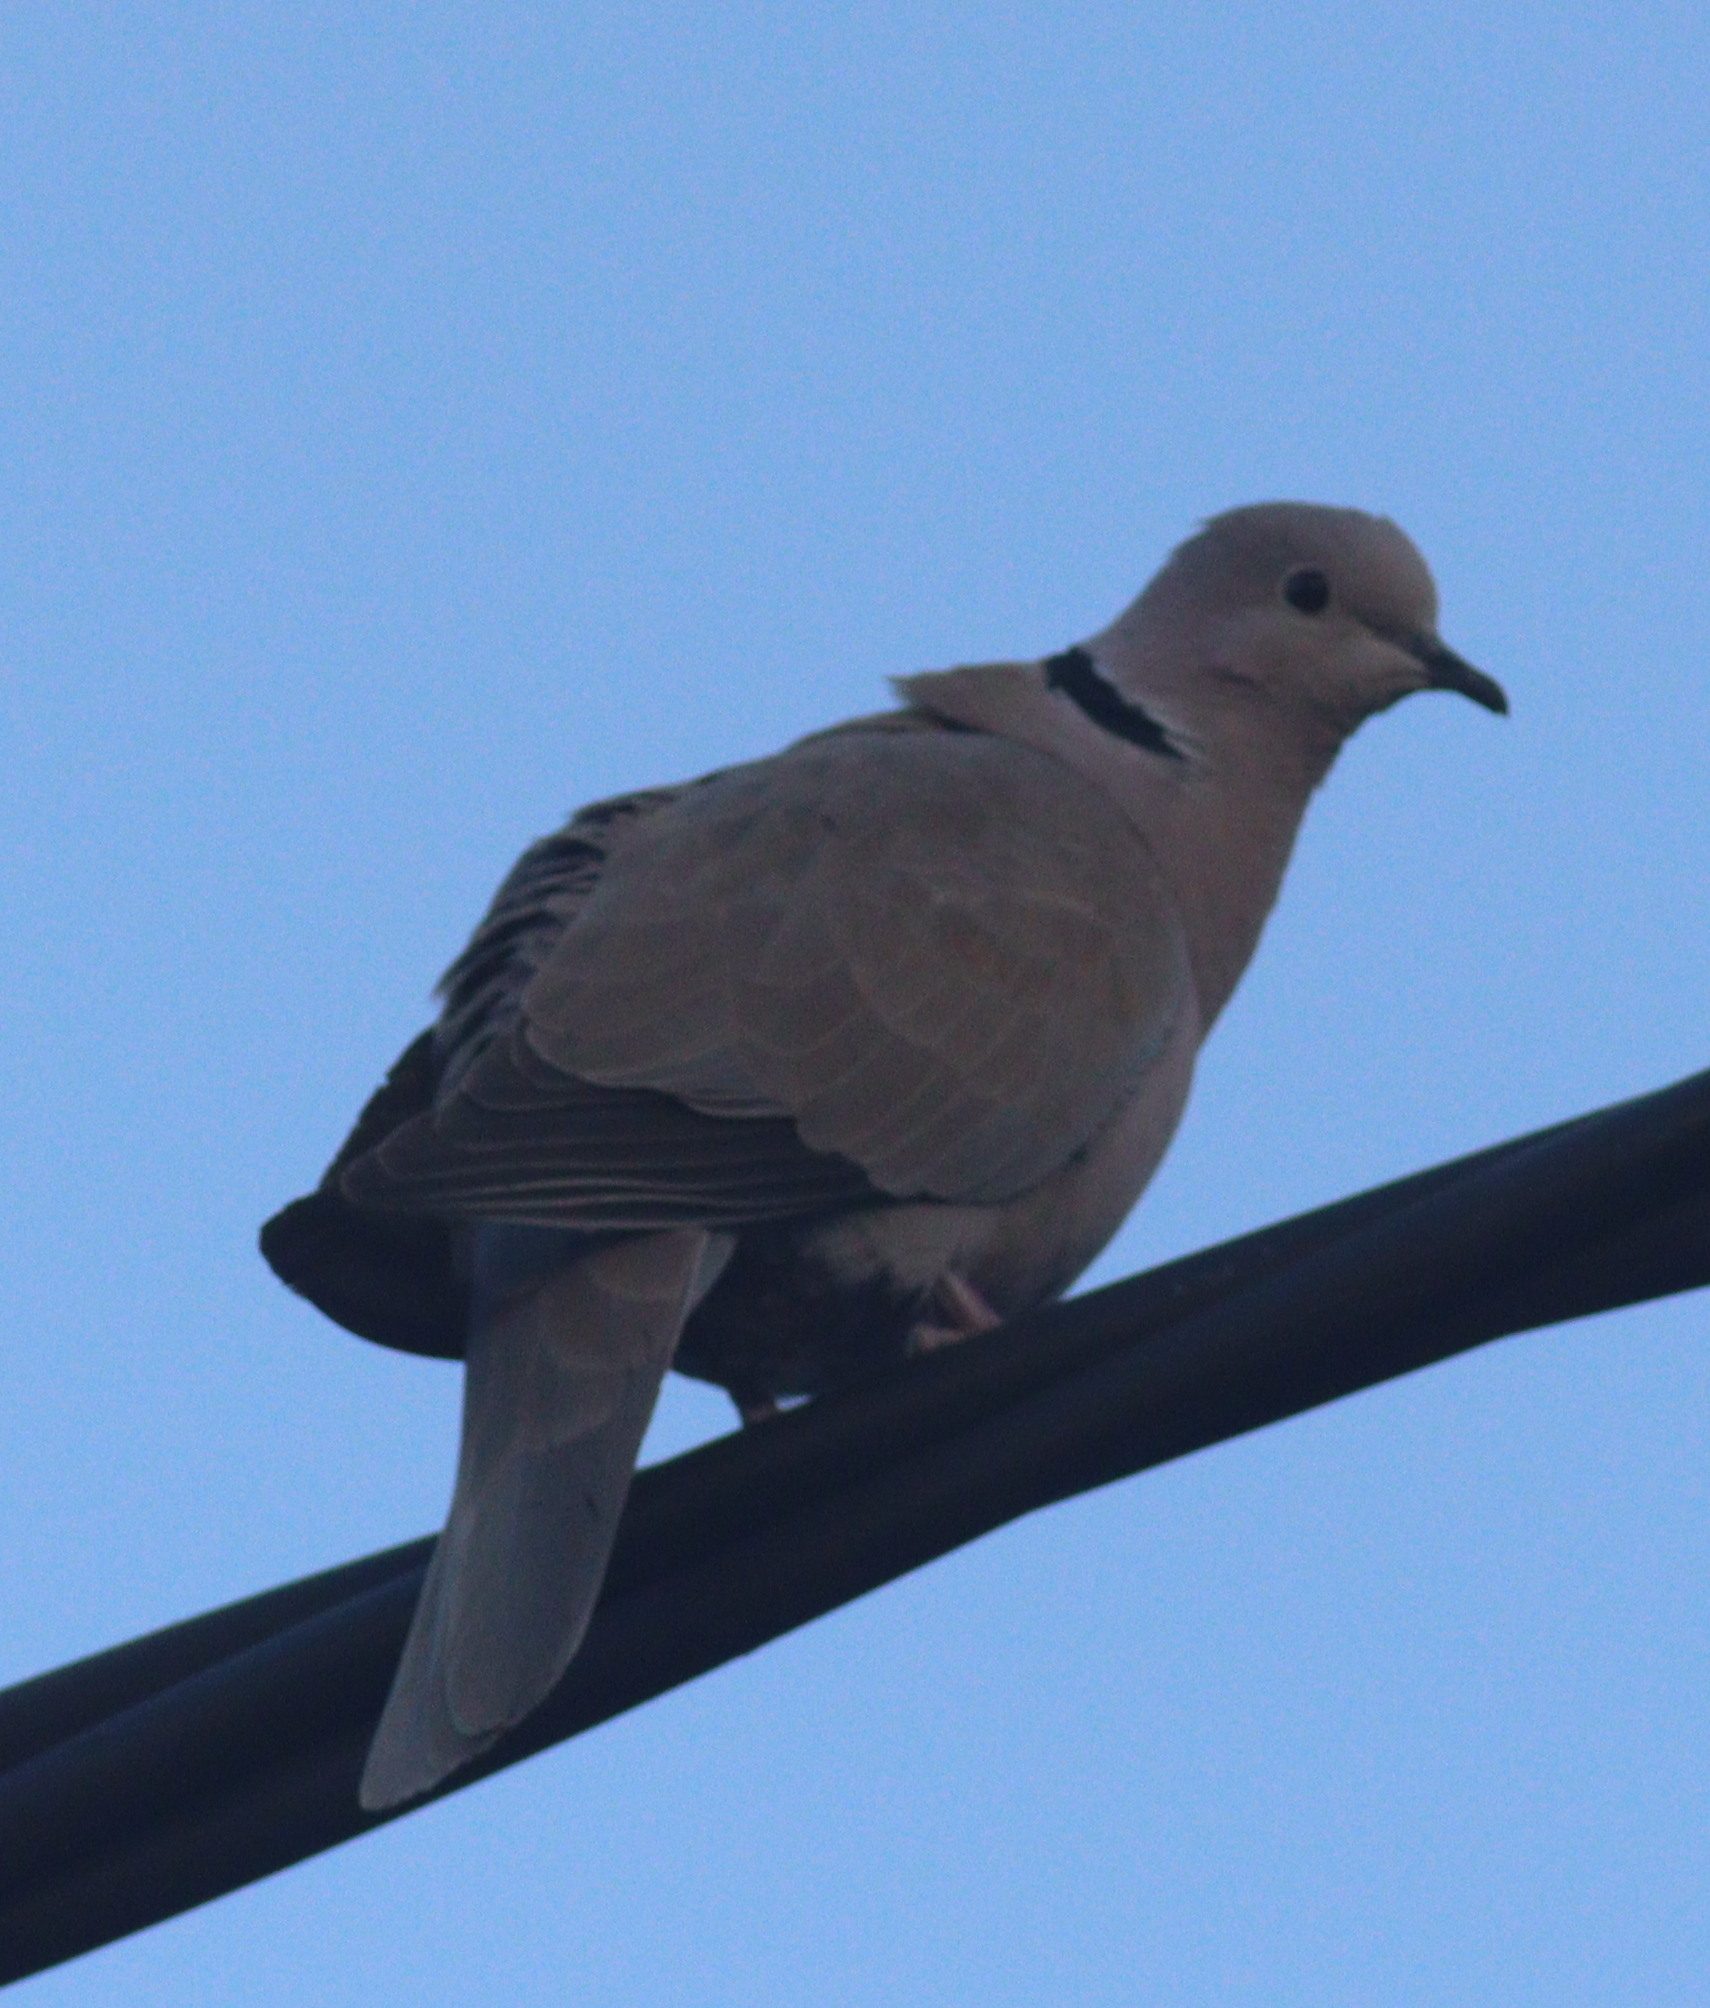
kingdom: Animalia
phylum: Chordata
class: Aves
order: Columbiformes
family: Columbidae
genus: Streptopelia
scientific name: Streptopelia decaocto
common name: Eurasian collared dove
